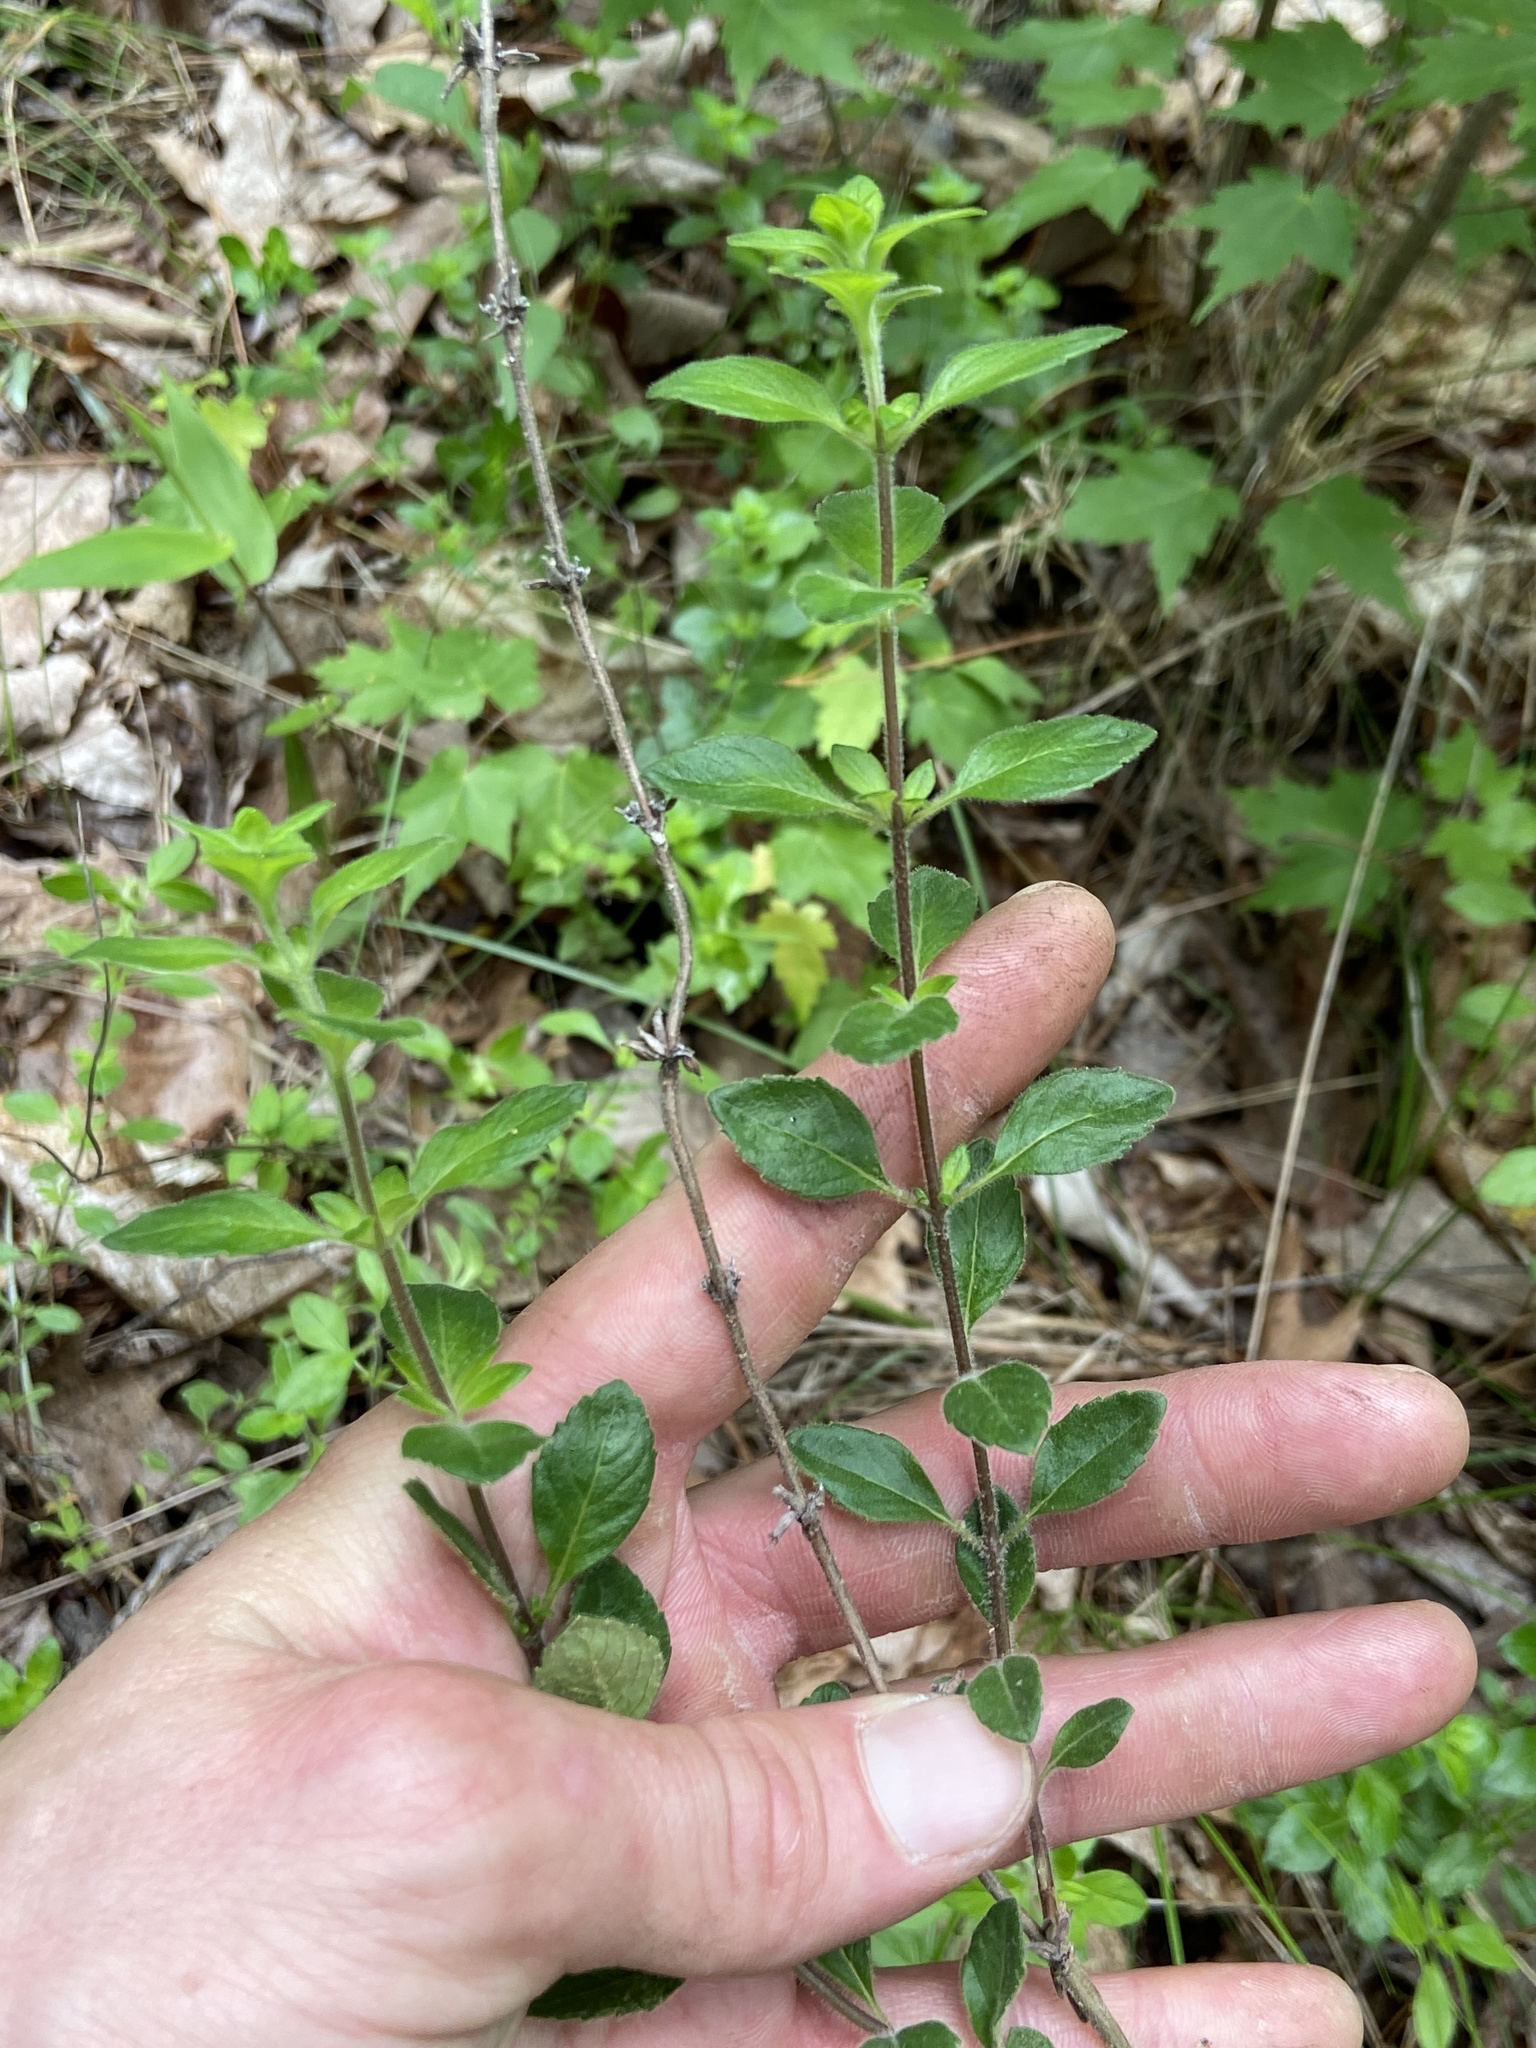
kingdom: Plantae
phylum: Tracheophyta
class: Magnoliopsida
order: Lamiales
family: Lamiaceae
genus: Clinopodium
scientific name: Clinopodium talladeganum
